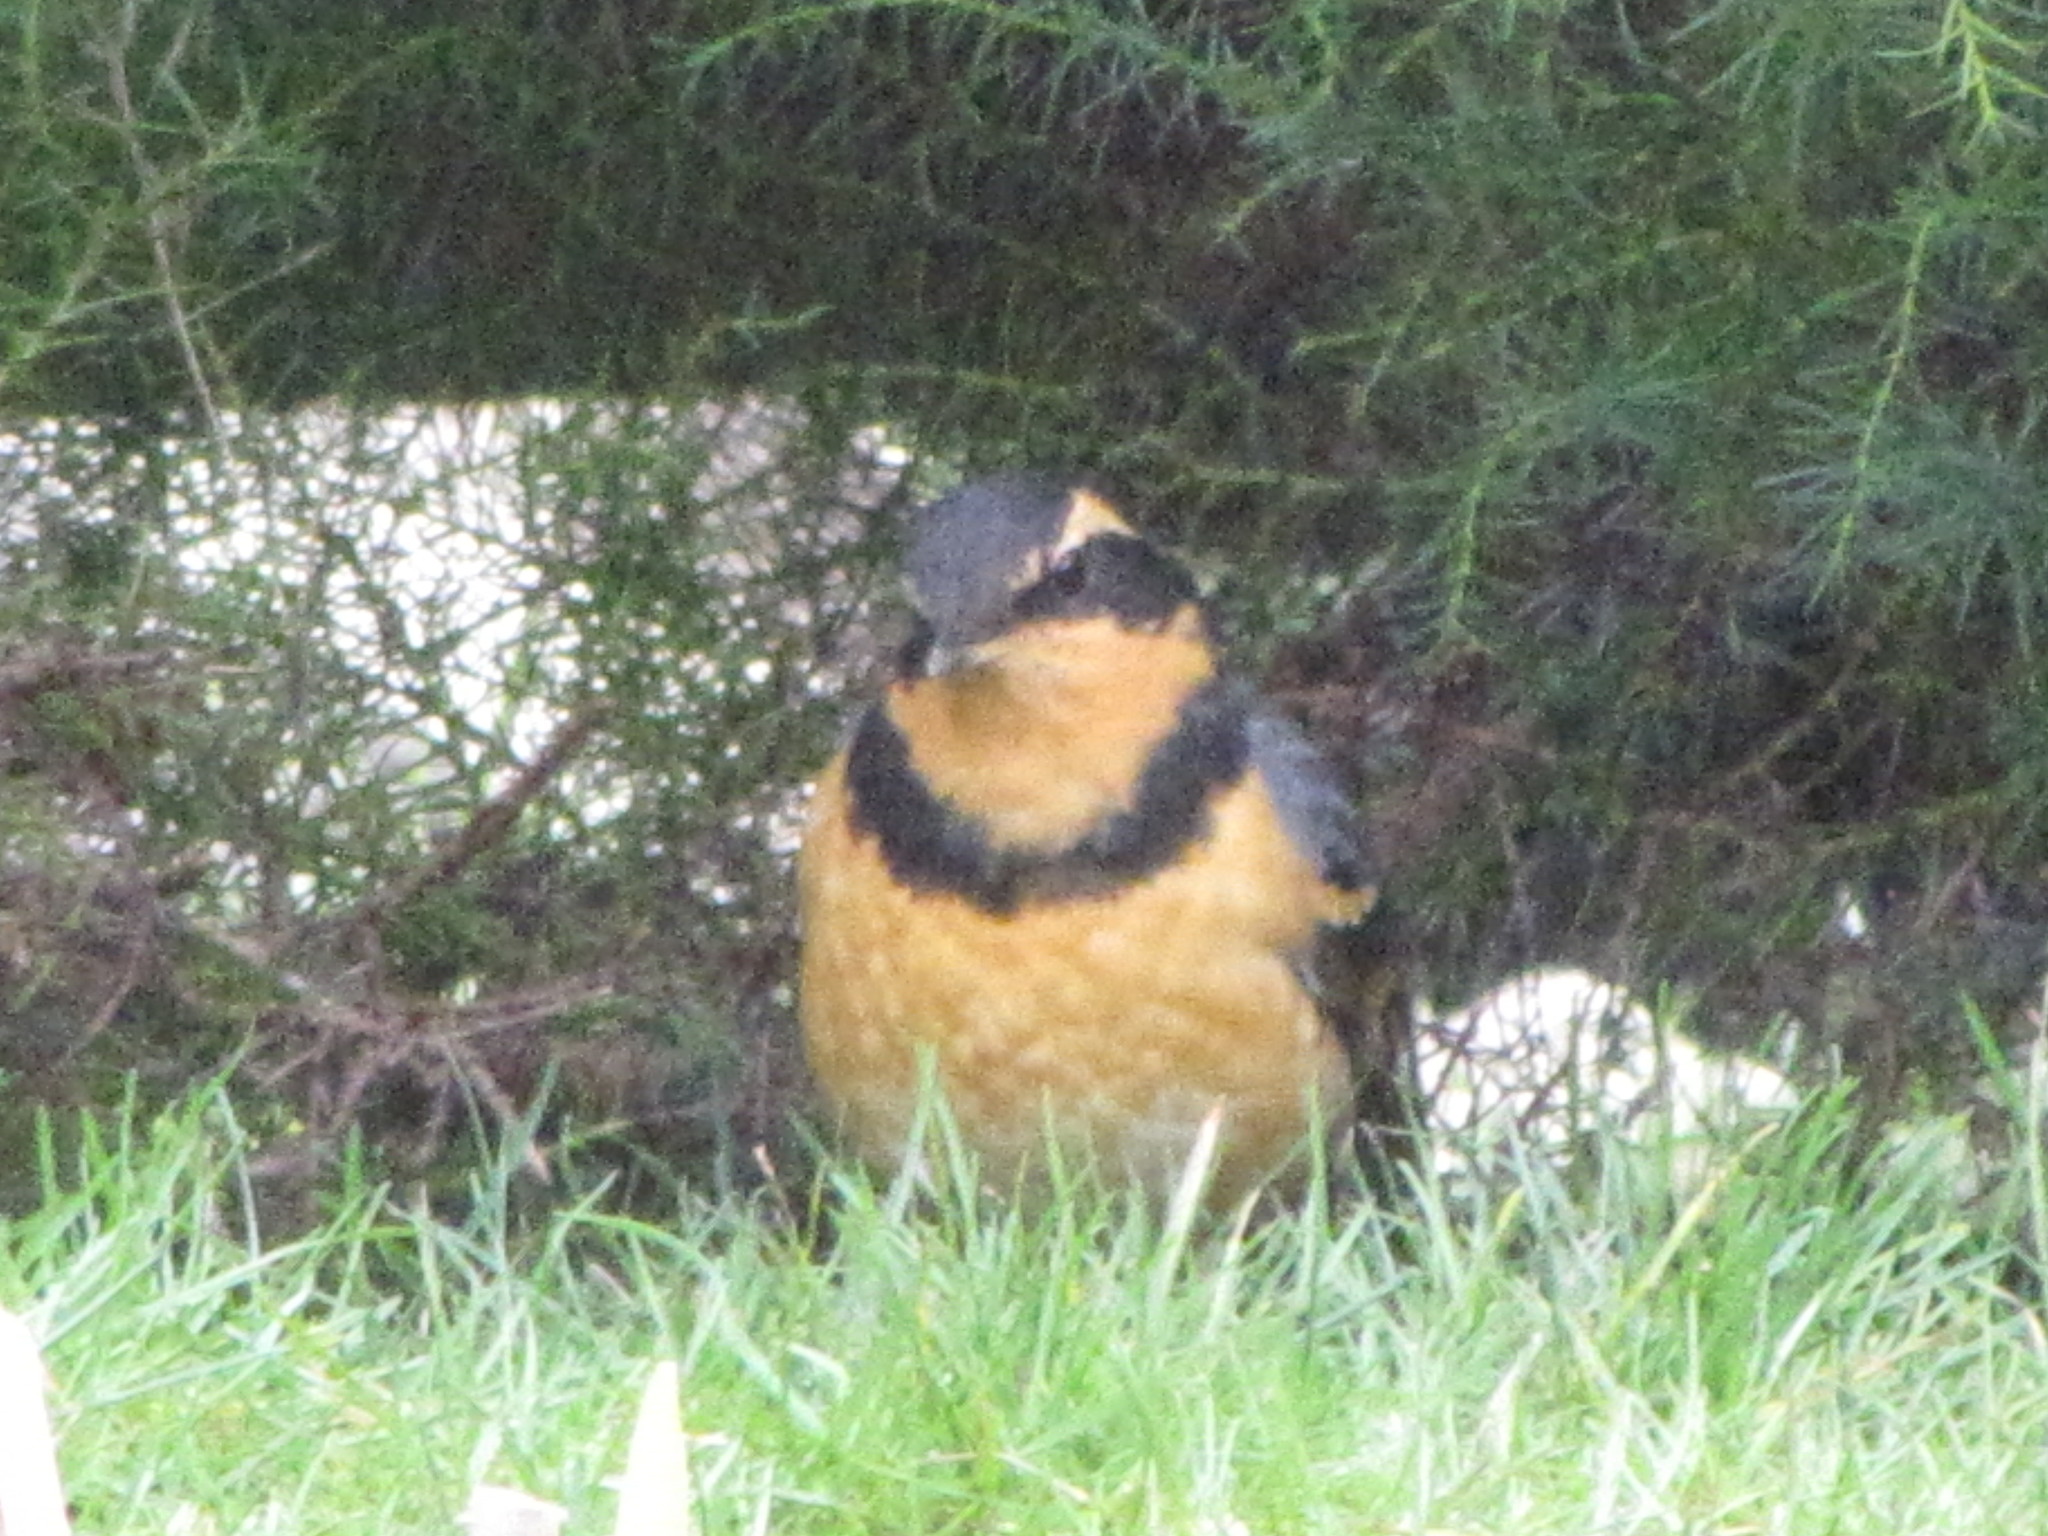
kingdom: Animalia
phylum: Chordata
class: Aves
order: Passeriformes
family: Turdidae
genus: Ixoreus
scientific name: Ixoreus naevius
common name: Varied thrush
